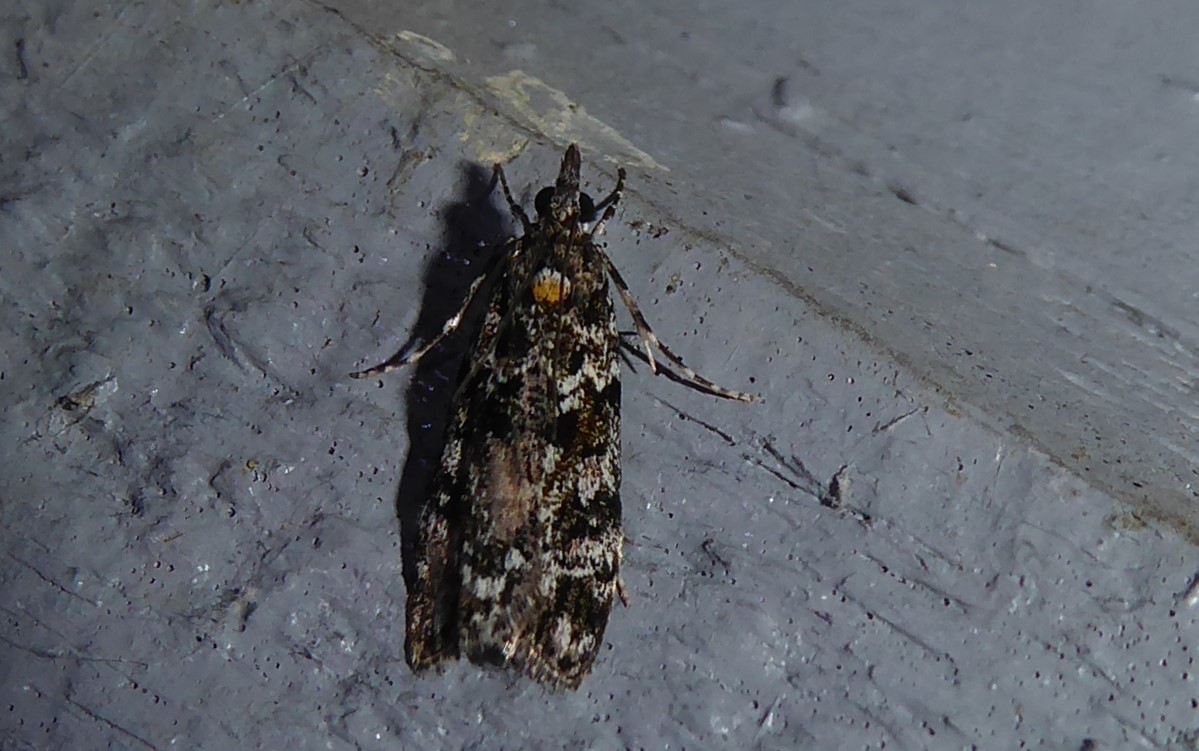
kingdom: Animalia
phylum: Arthropoda
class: Insecta
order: Lepidoptera
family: Crambidae
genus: Eudonia
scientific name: Eudonia
